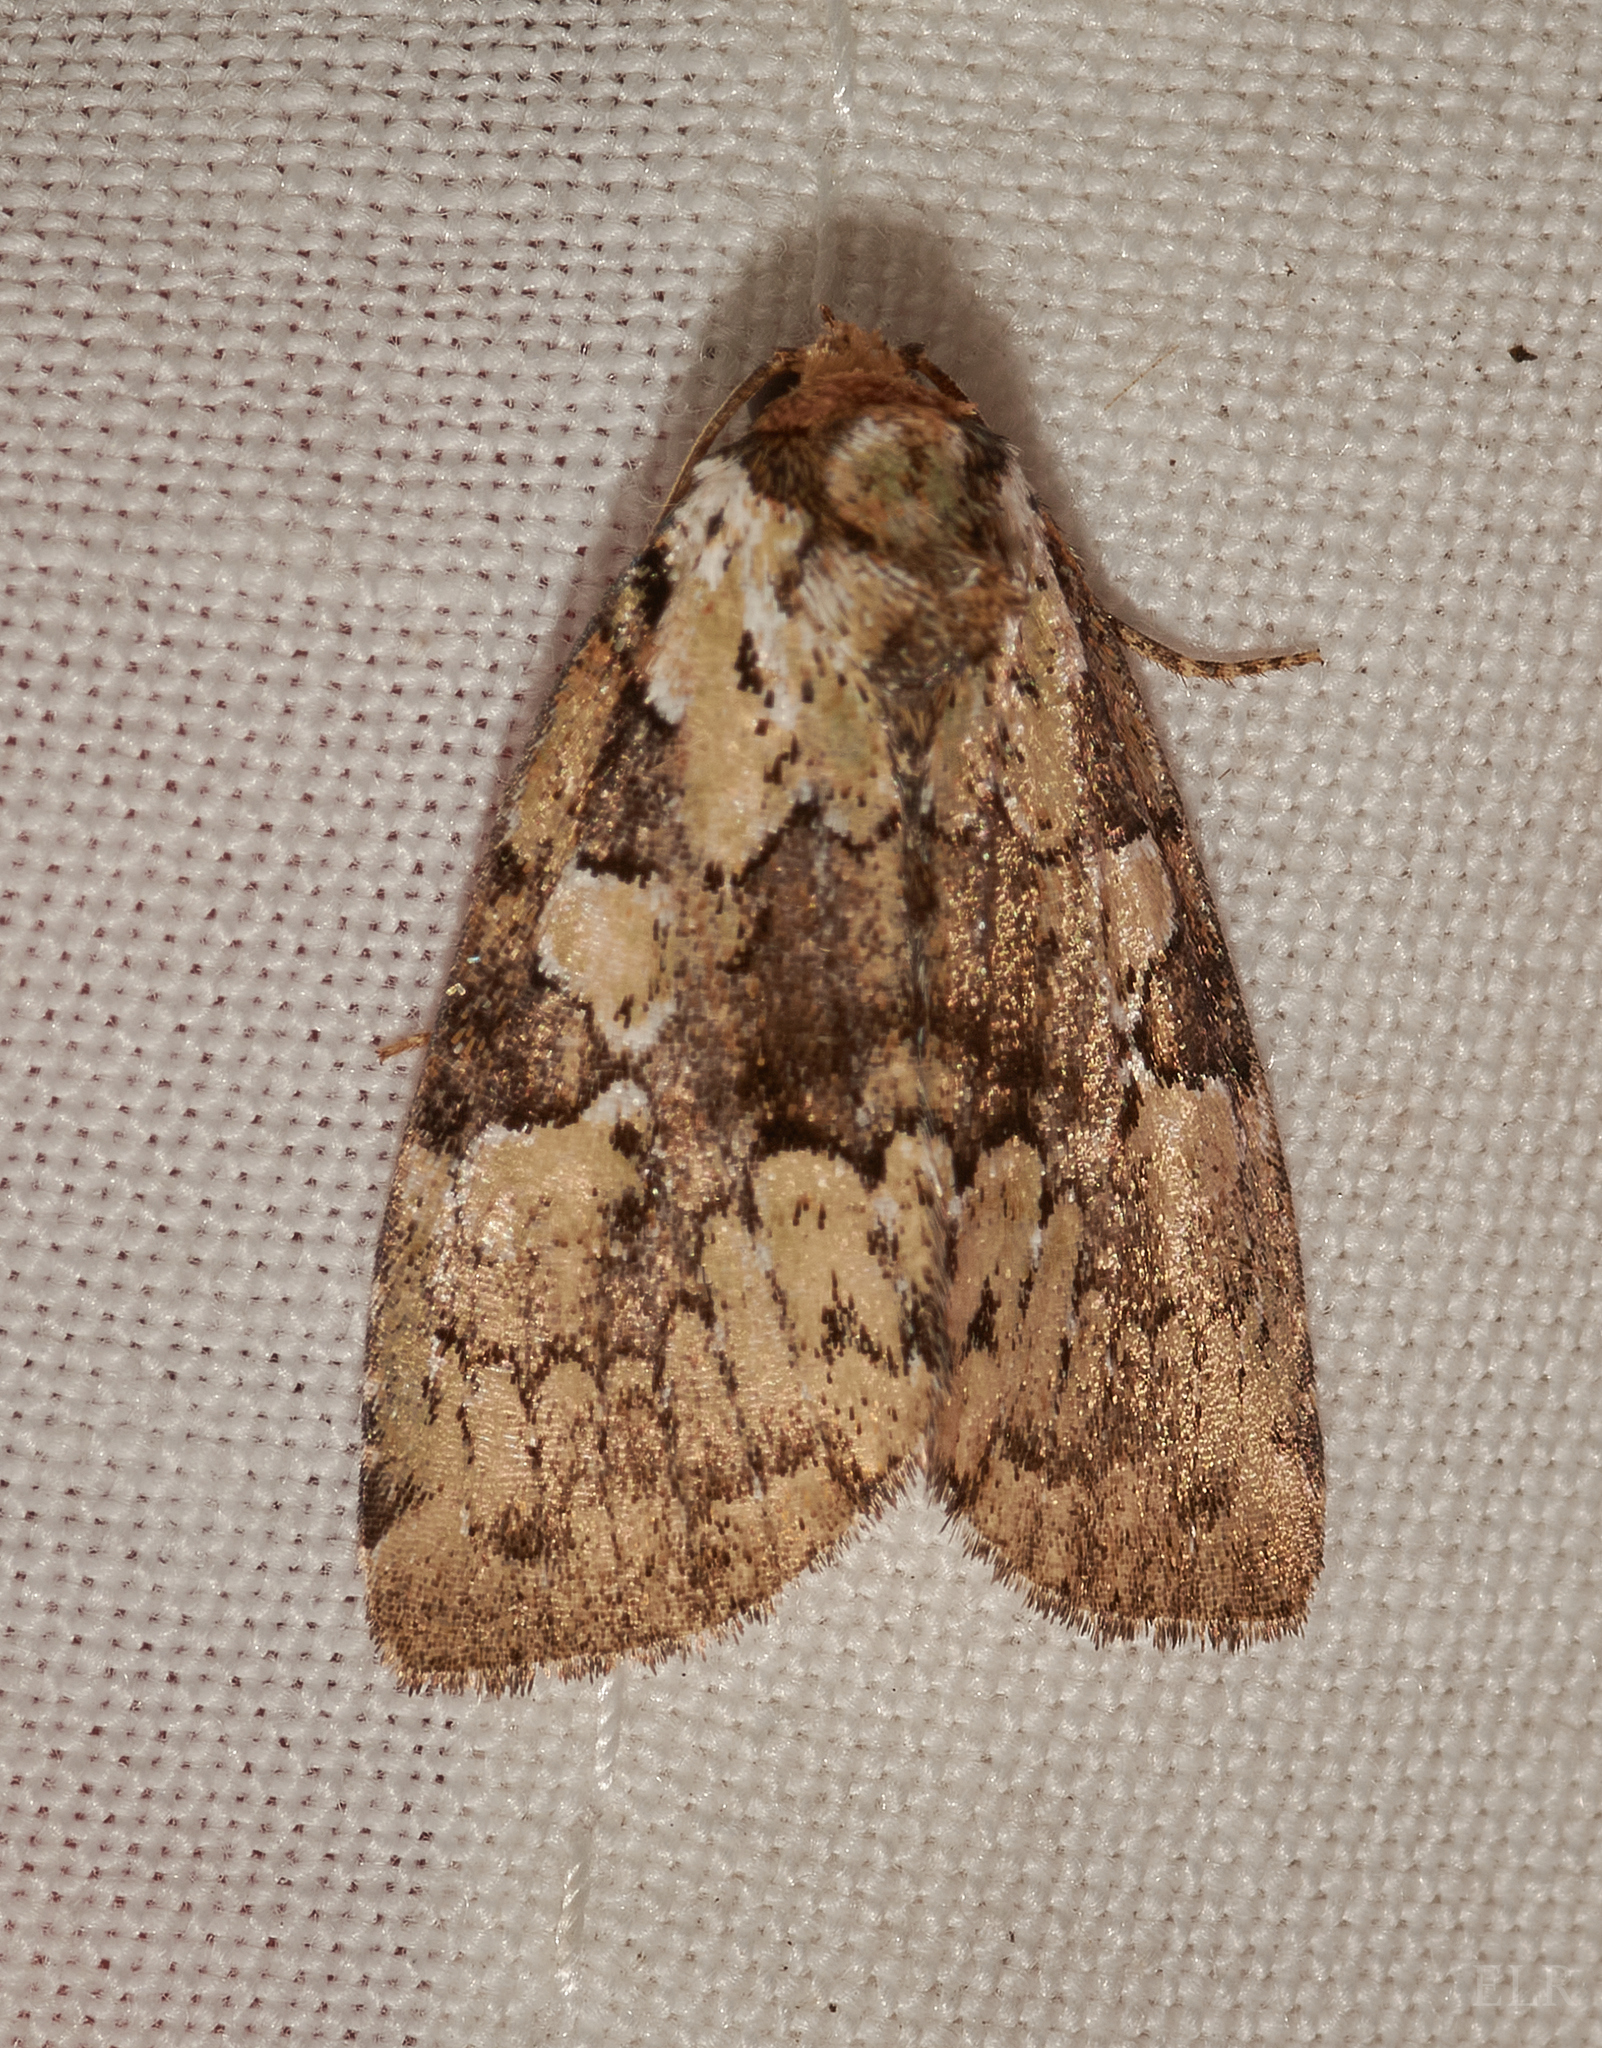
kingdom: Animalia
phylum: Arthropoda
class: Insecta
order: Lepidoptera
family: Noctuidae
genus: Leuconycta
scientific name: Leuconycta lepidula
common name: Marbled-green leuconycta moth
